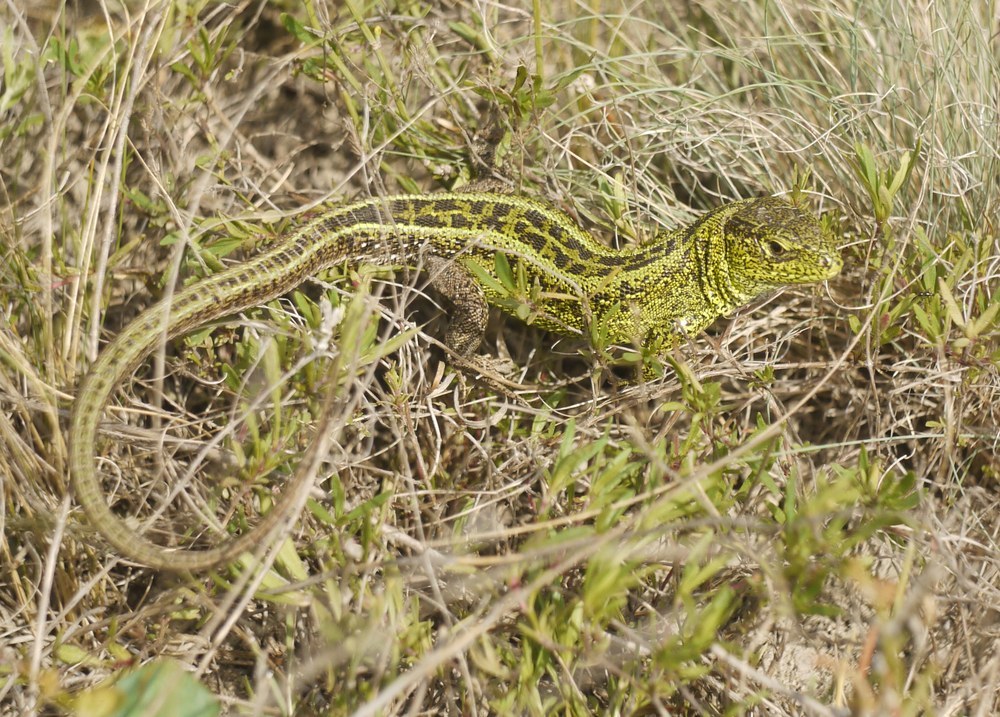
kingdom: Animalia
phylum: Chordata
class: Squamata
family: Lacertidae
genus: Lacerta
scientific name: Lacerta agilis
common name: Sand lizard
